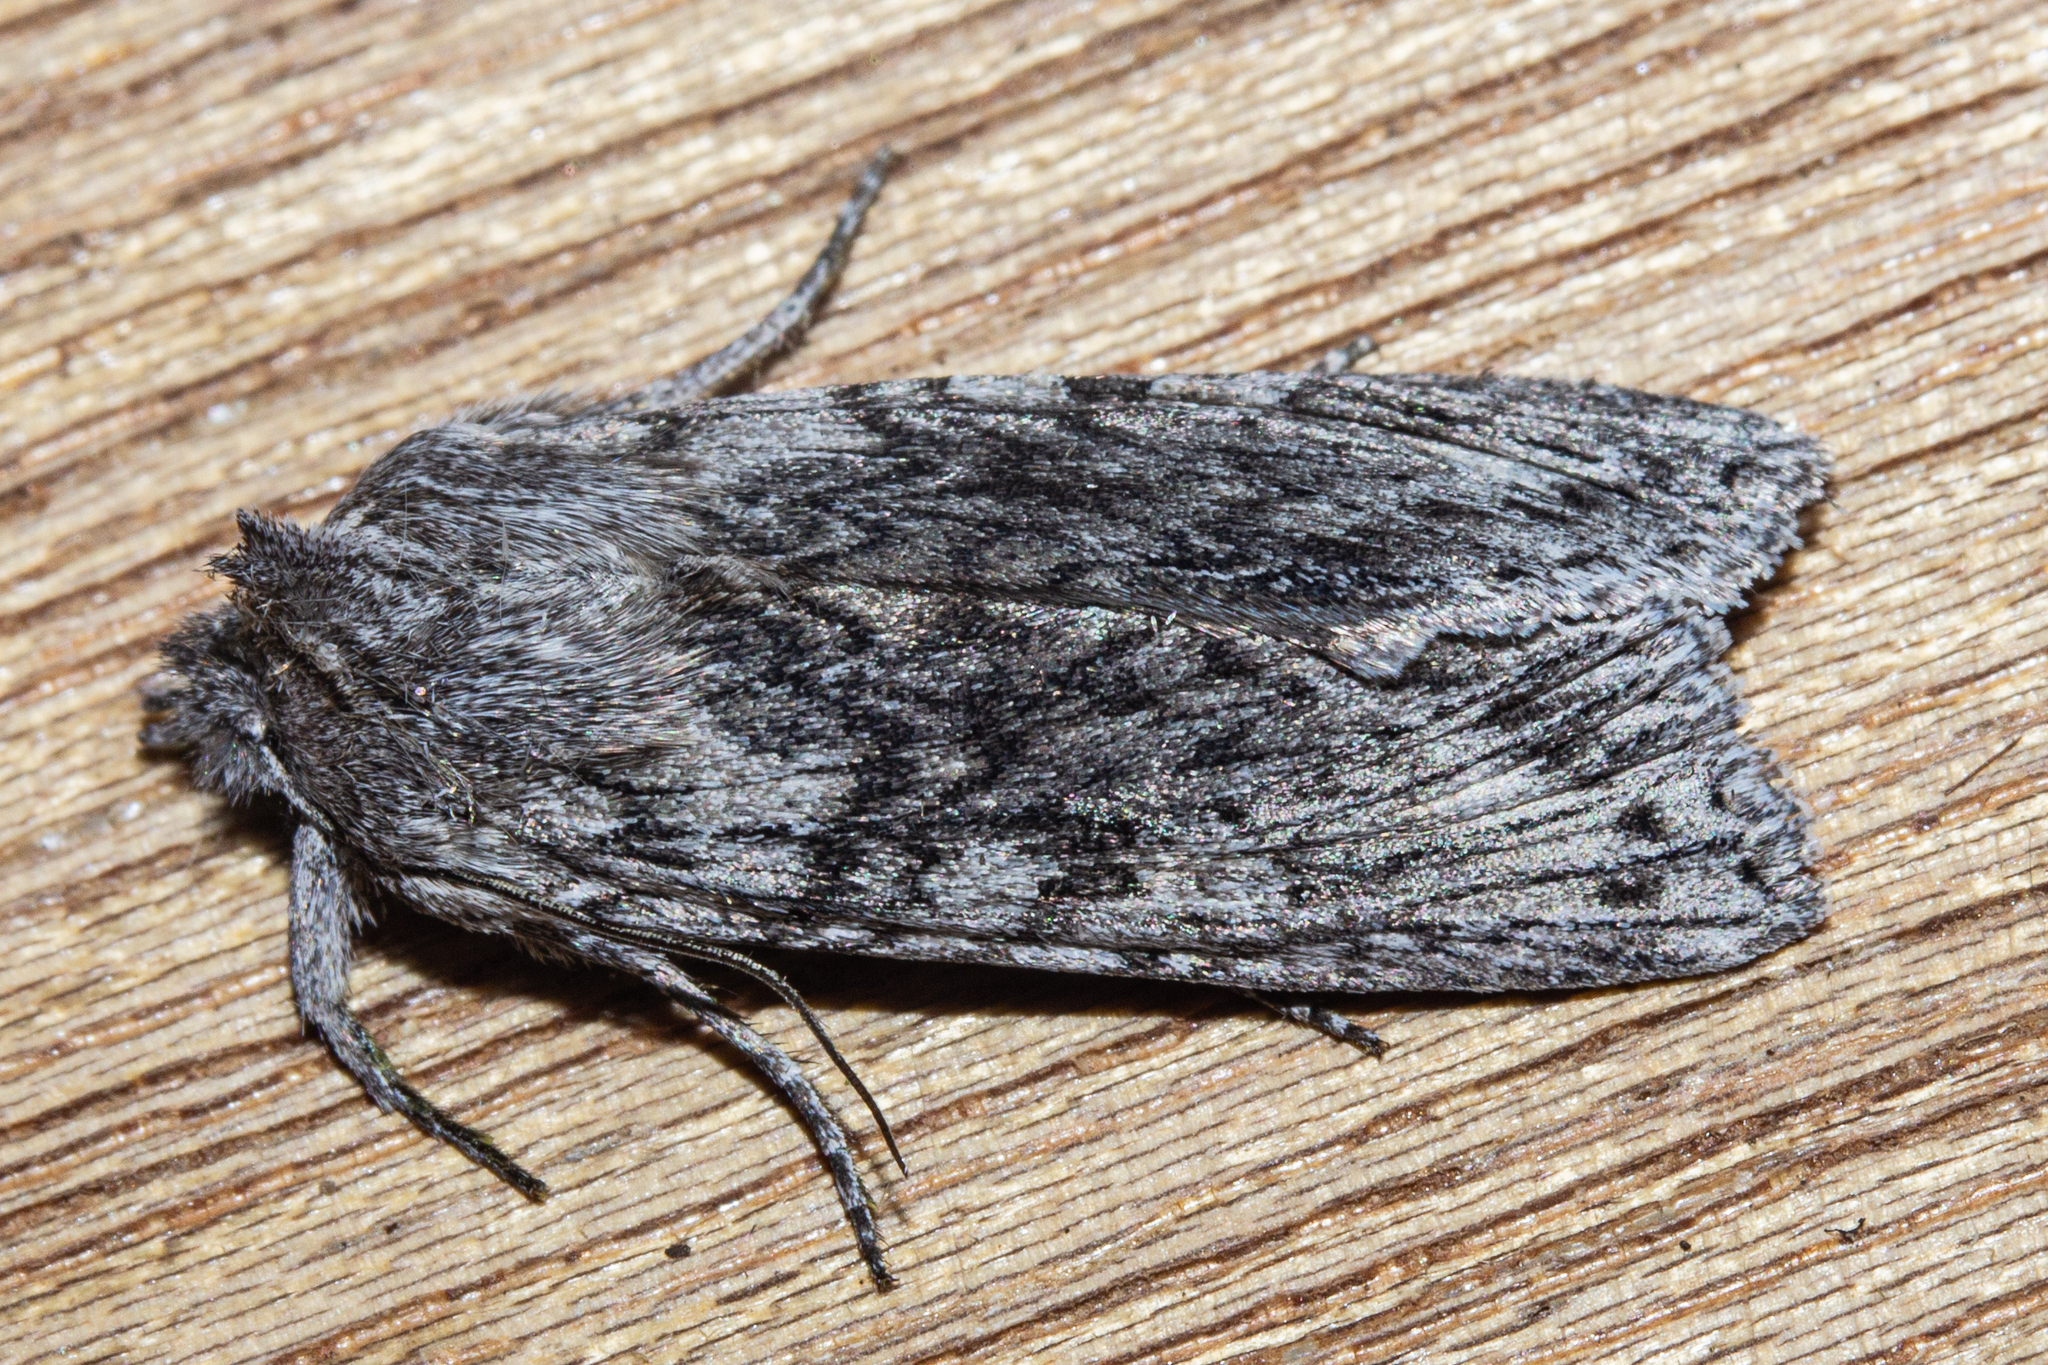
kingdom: Animalia
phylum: Arthropoda
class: Insecta
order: Lepidoptera
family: Noctuidae
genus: Physetica
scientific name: Physetica phricias
